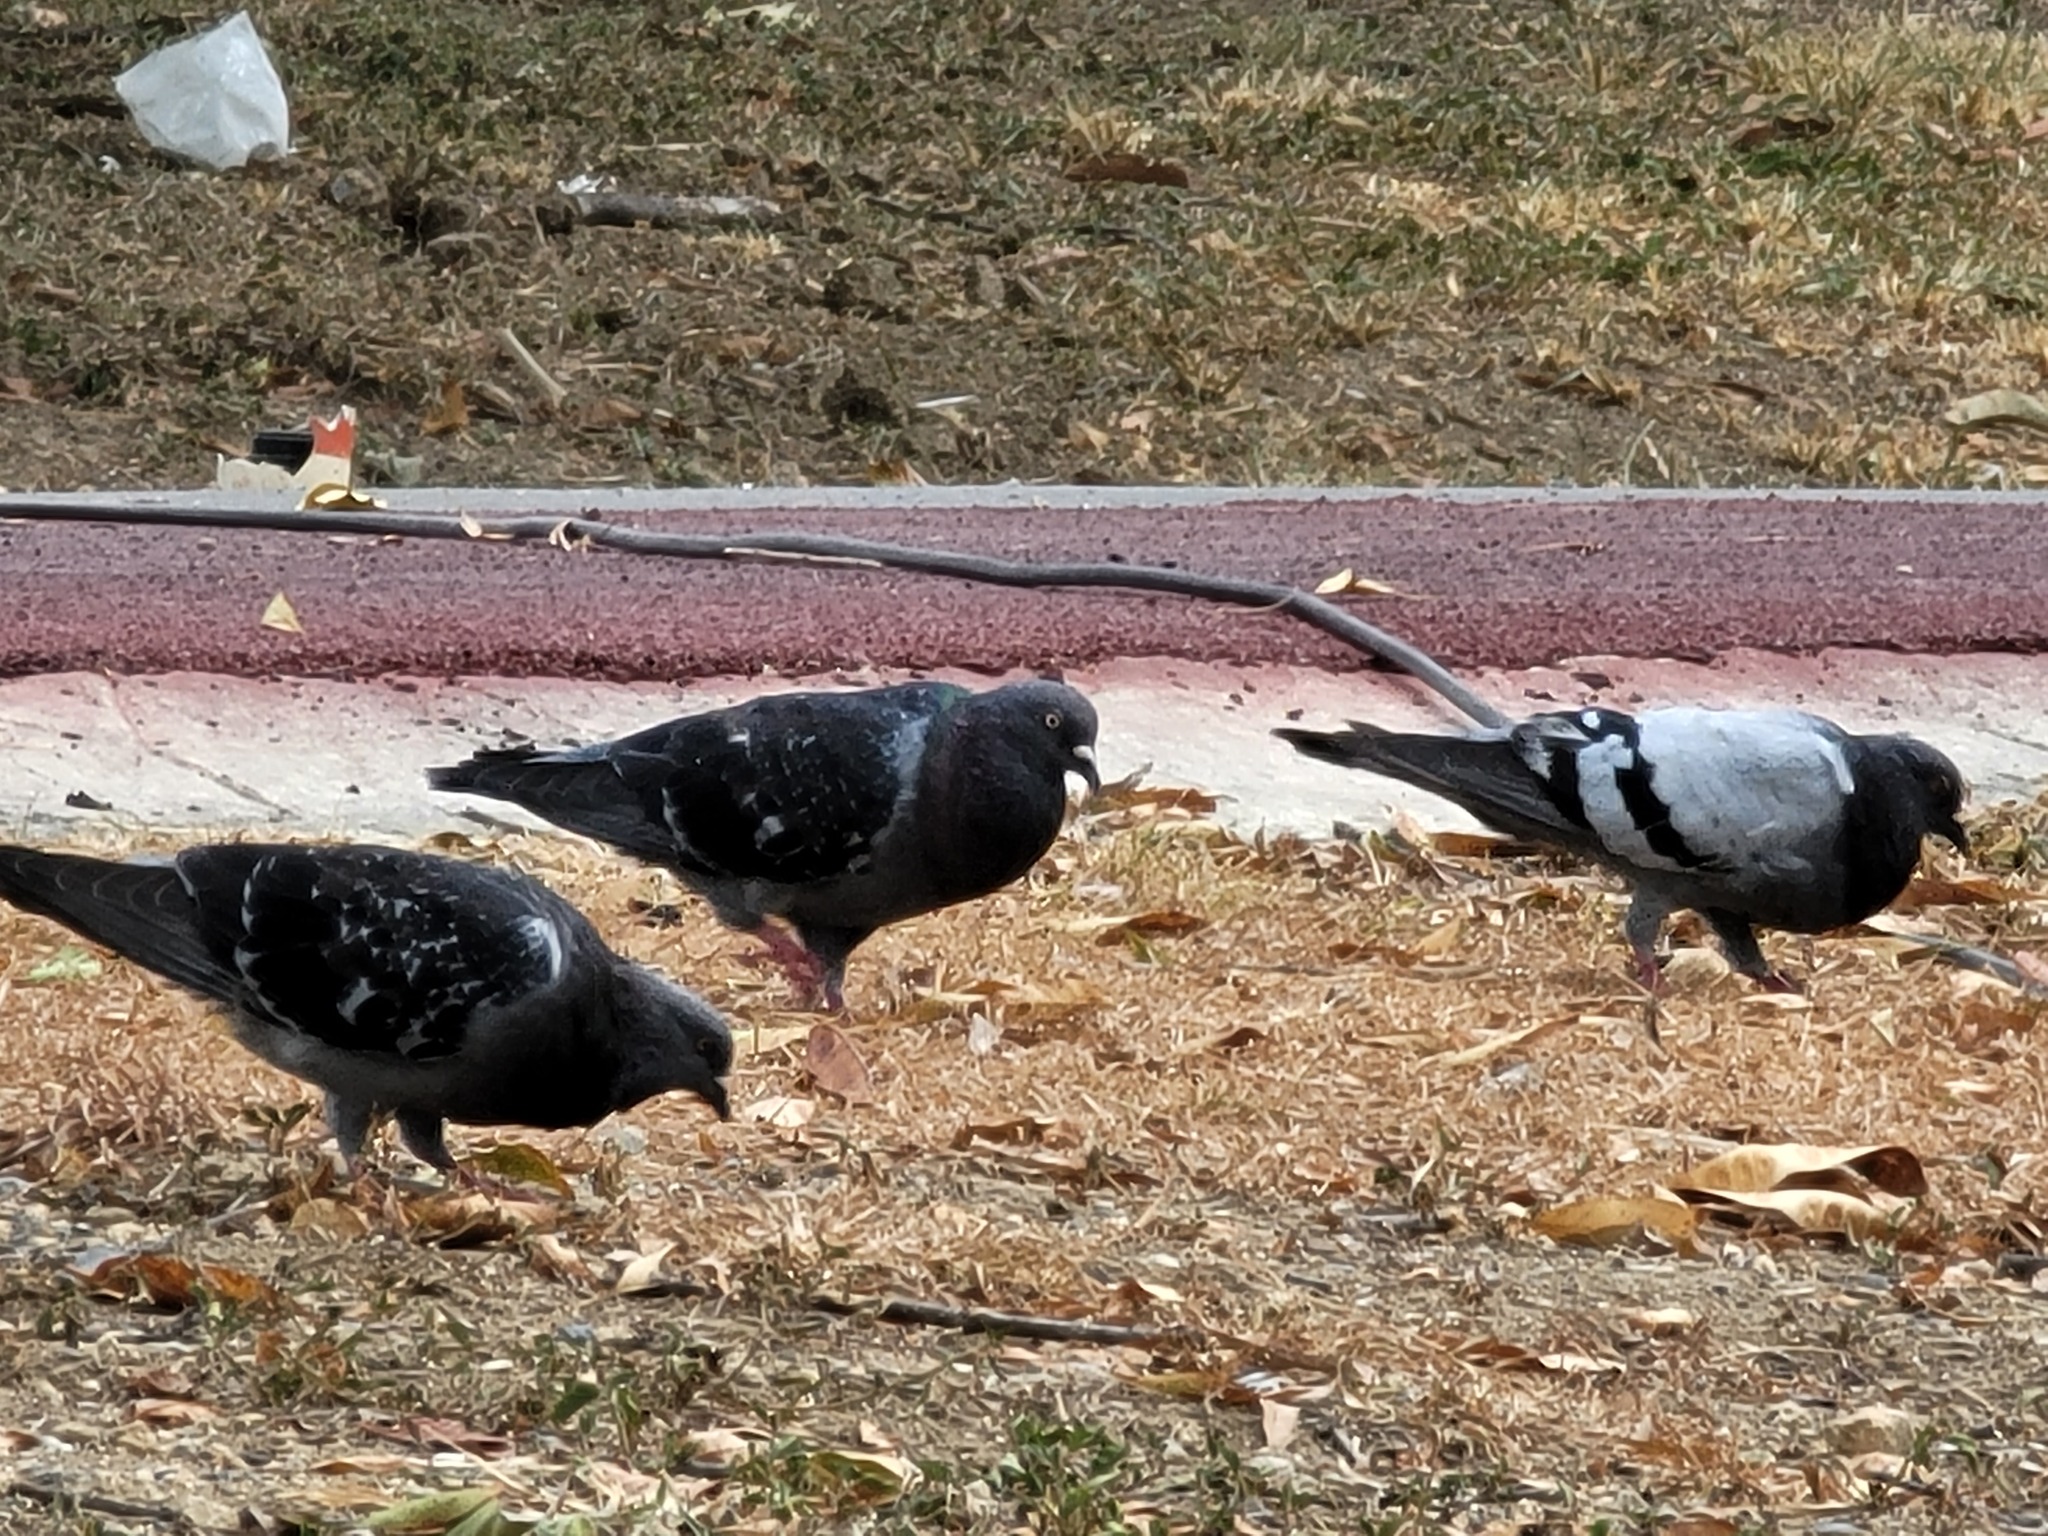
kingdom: Animalia
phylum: Chordata
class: Aves
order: Columbiformes
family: Columbidae
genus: Columba
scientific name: Columba livia
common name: Rock pigeon
